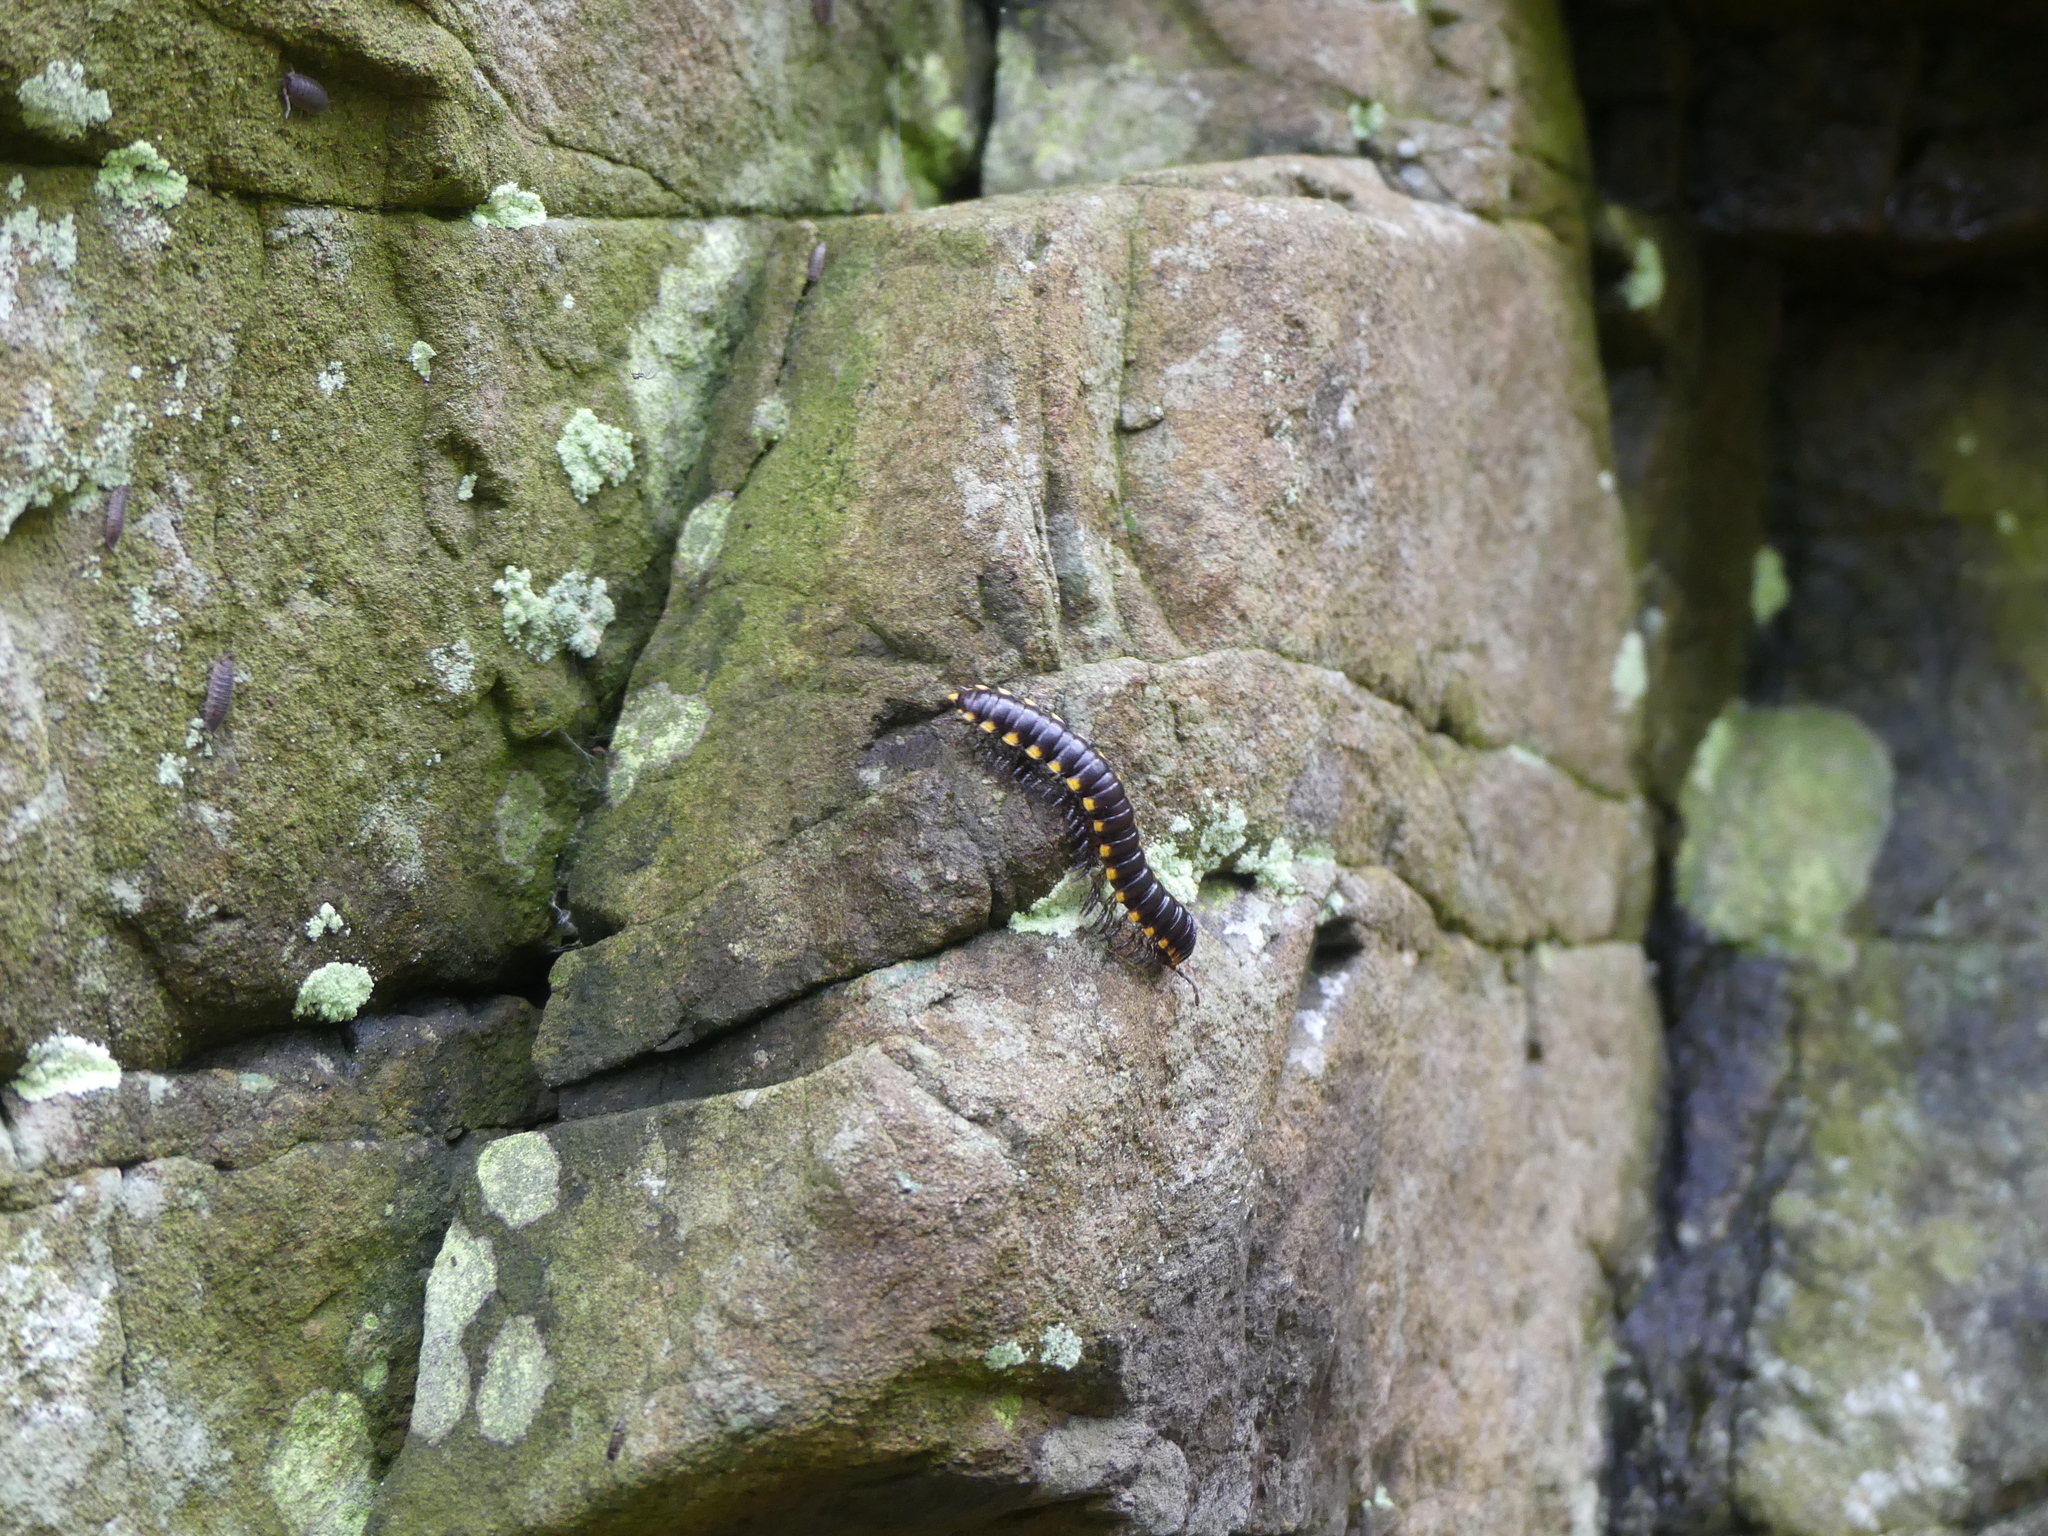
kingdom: Animalia
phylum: Arthropoda
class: Diplopoda
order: Polydesmida
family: Xystodesmidae
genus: Harpaphe
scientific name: Harpaphe haydeniana
